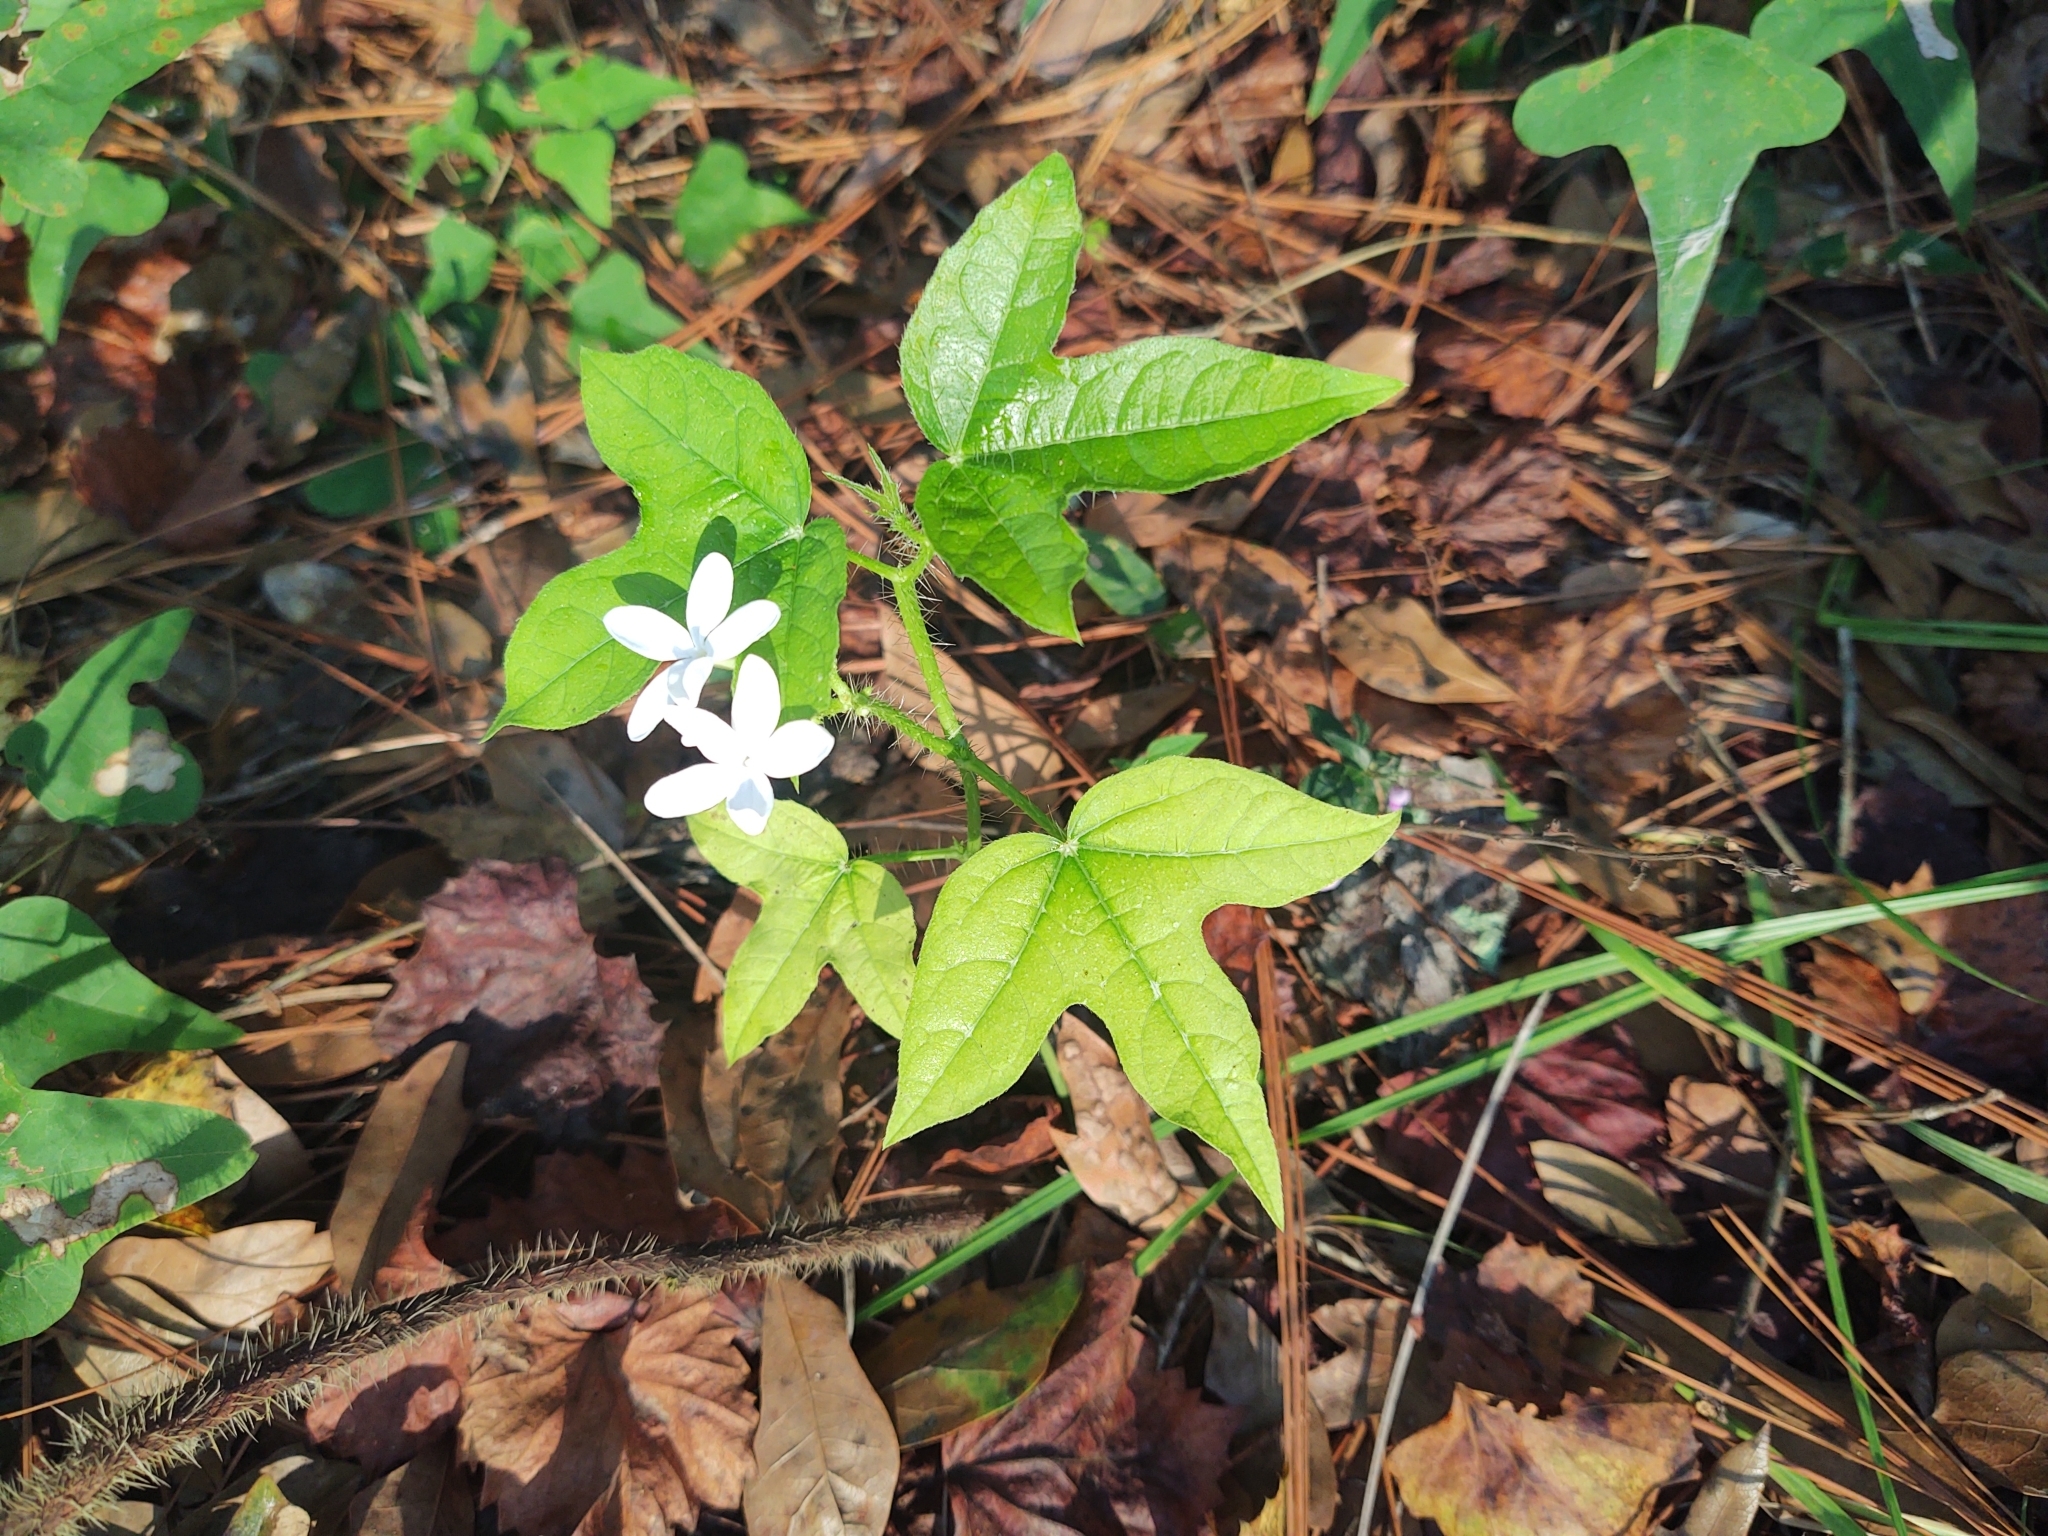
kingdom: Plantae
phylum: Tracheophyta
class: Magnoliopsida
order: Malpighiales
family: Euphorbiaceae
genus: Cnidoscolus
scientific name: Cnidoscolus stimulosus
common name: Bull-nettle
